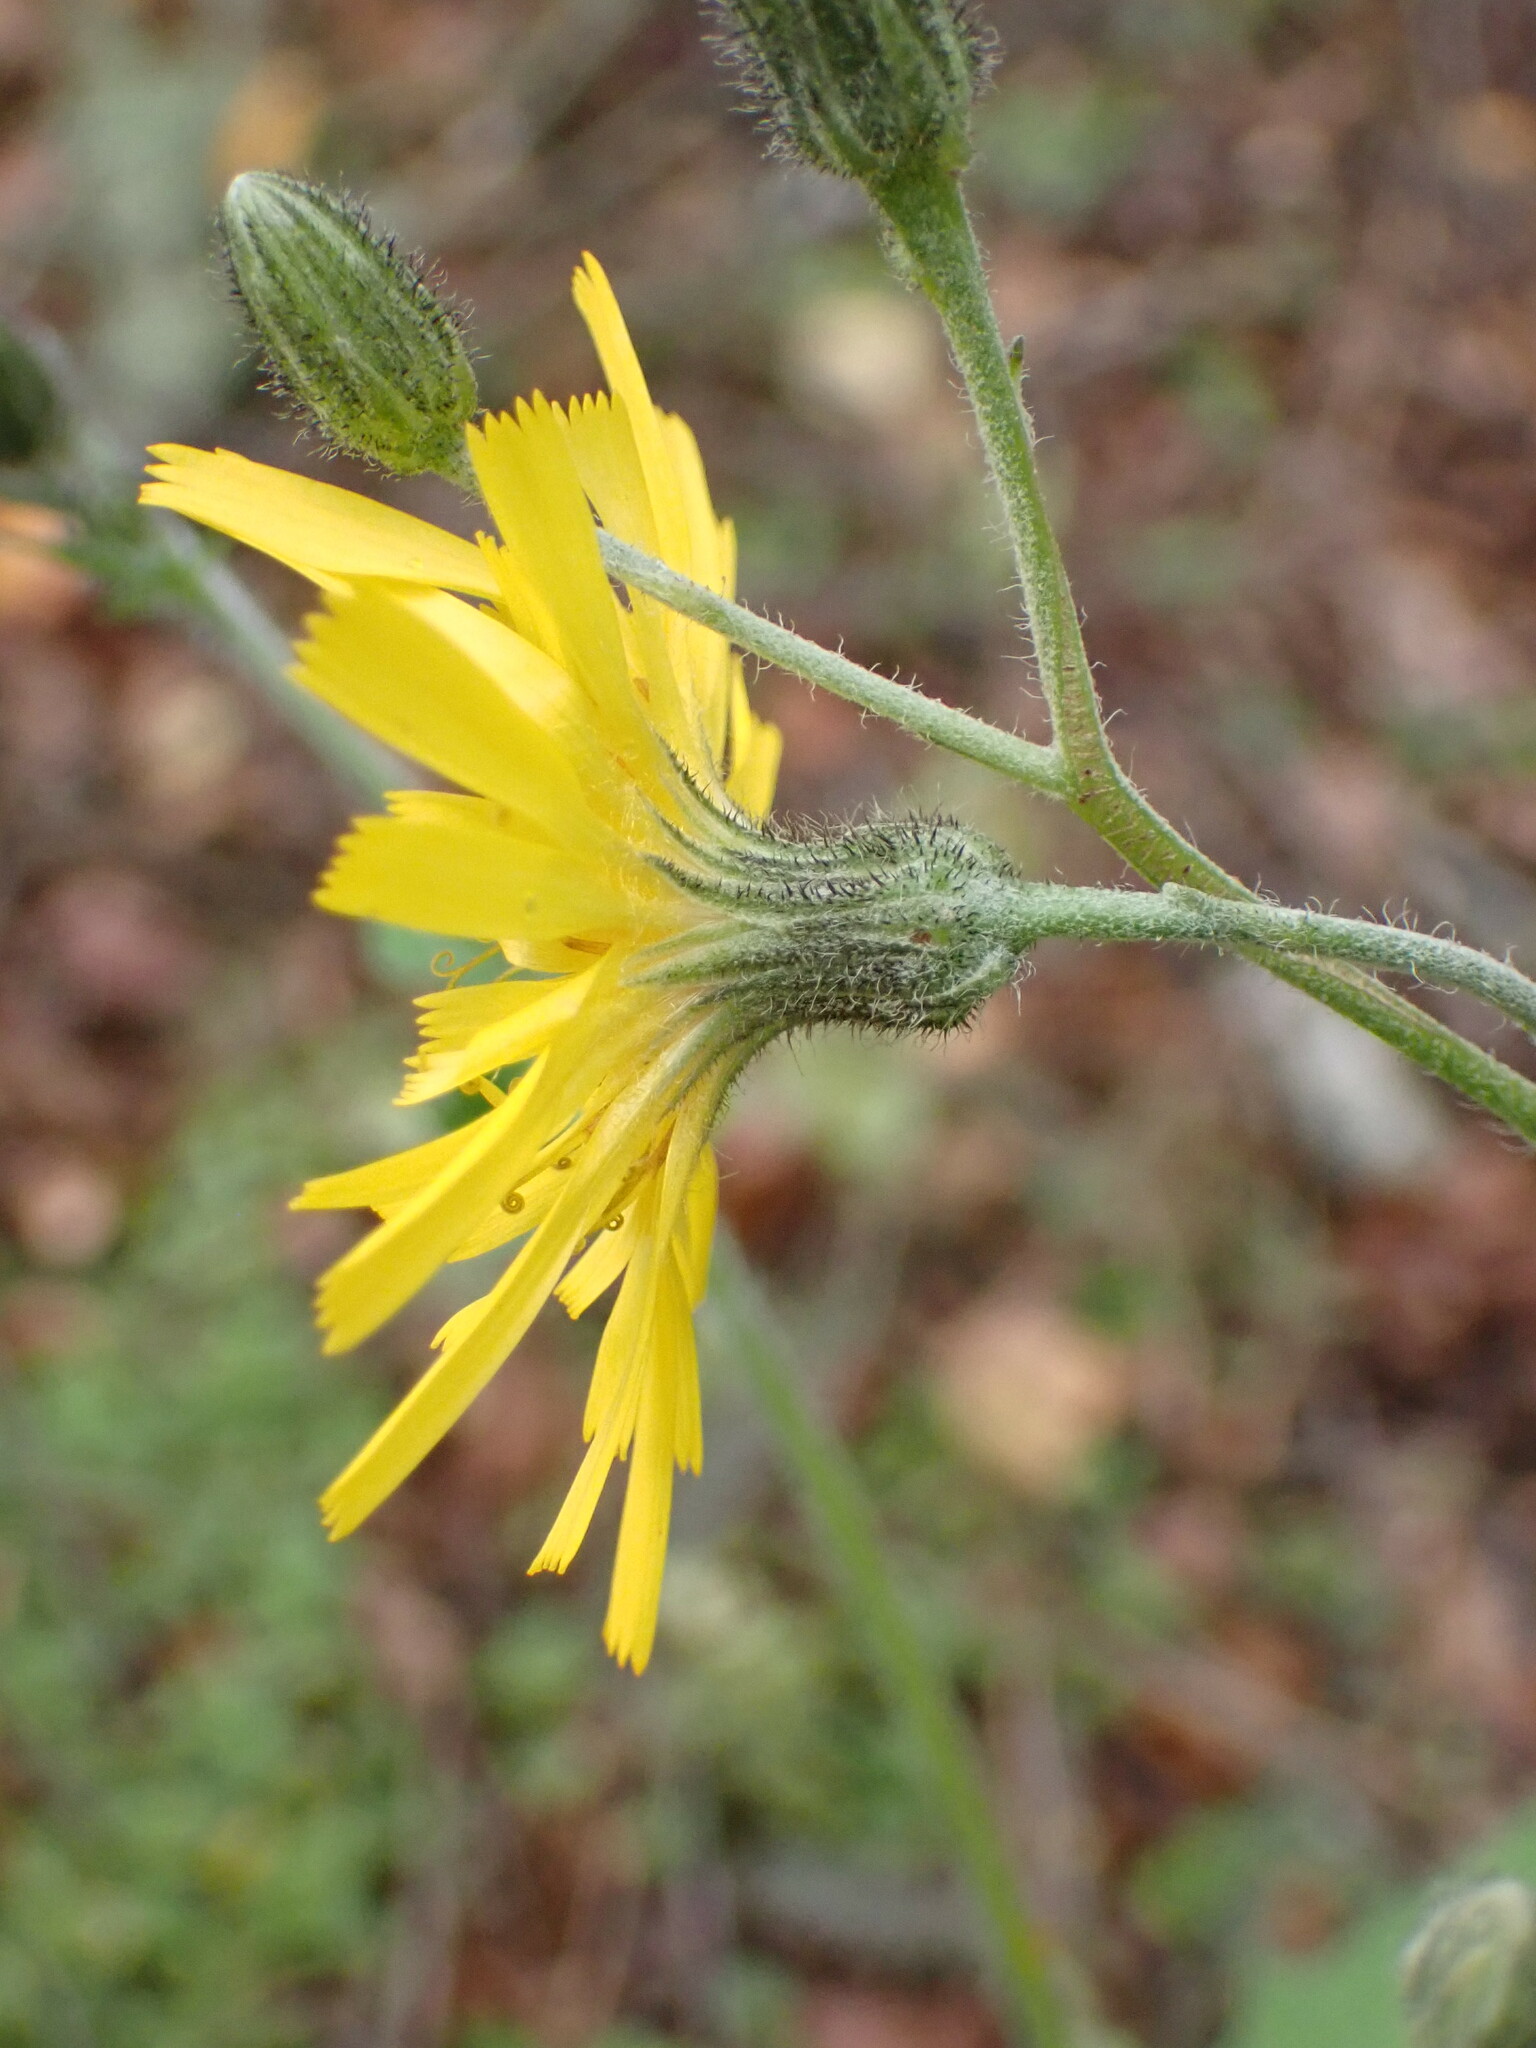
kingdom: Plantae
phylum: Tracheophyta
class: Magnoliopsida
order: Asterales
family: Asteraceae
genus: Hieracium
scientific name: Hieracium lepidulum
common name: Irregular-toothed hawkweed
